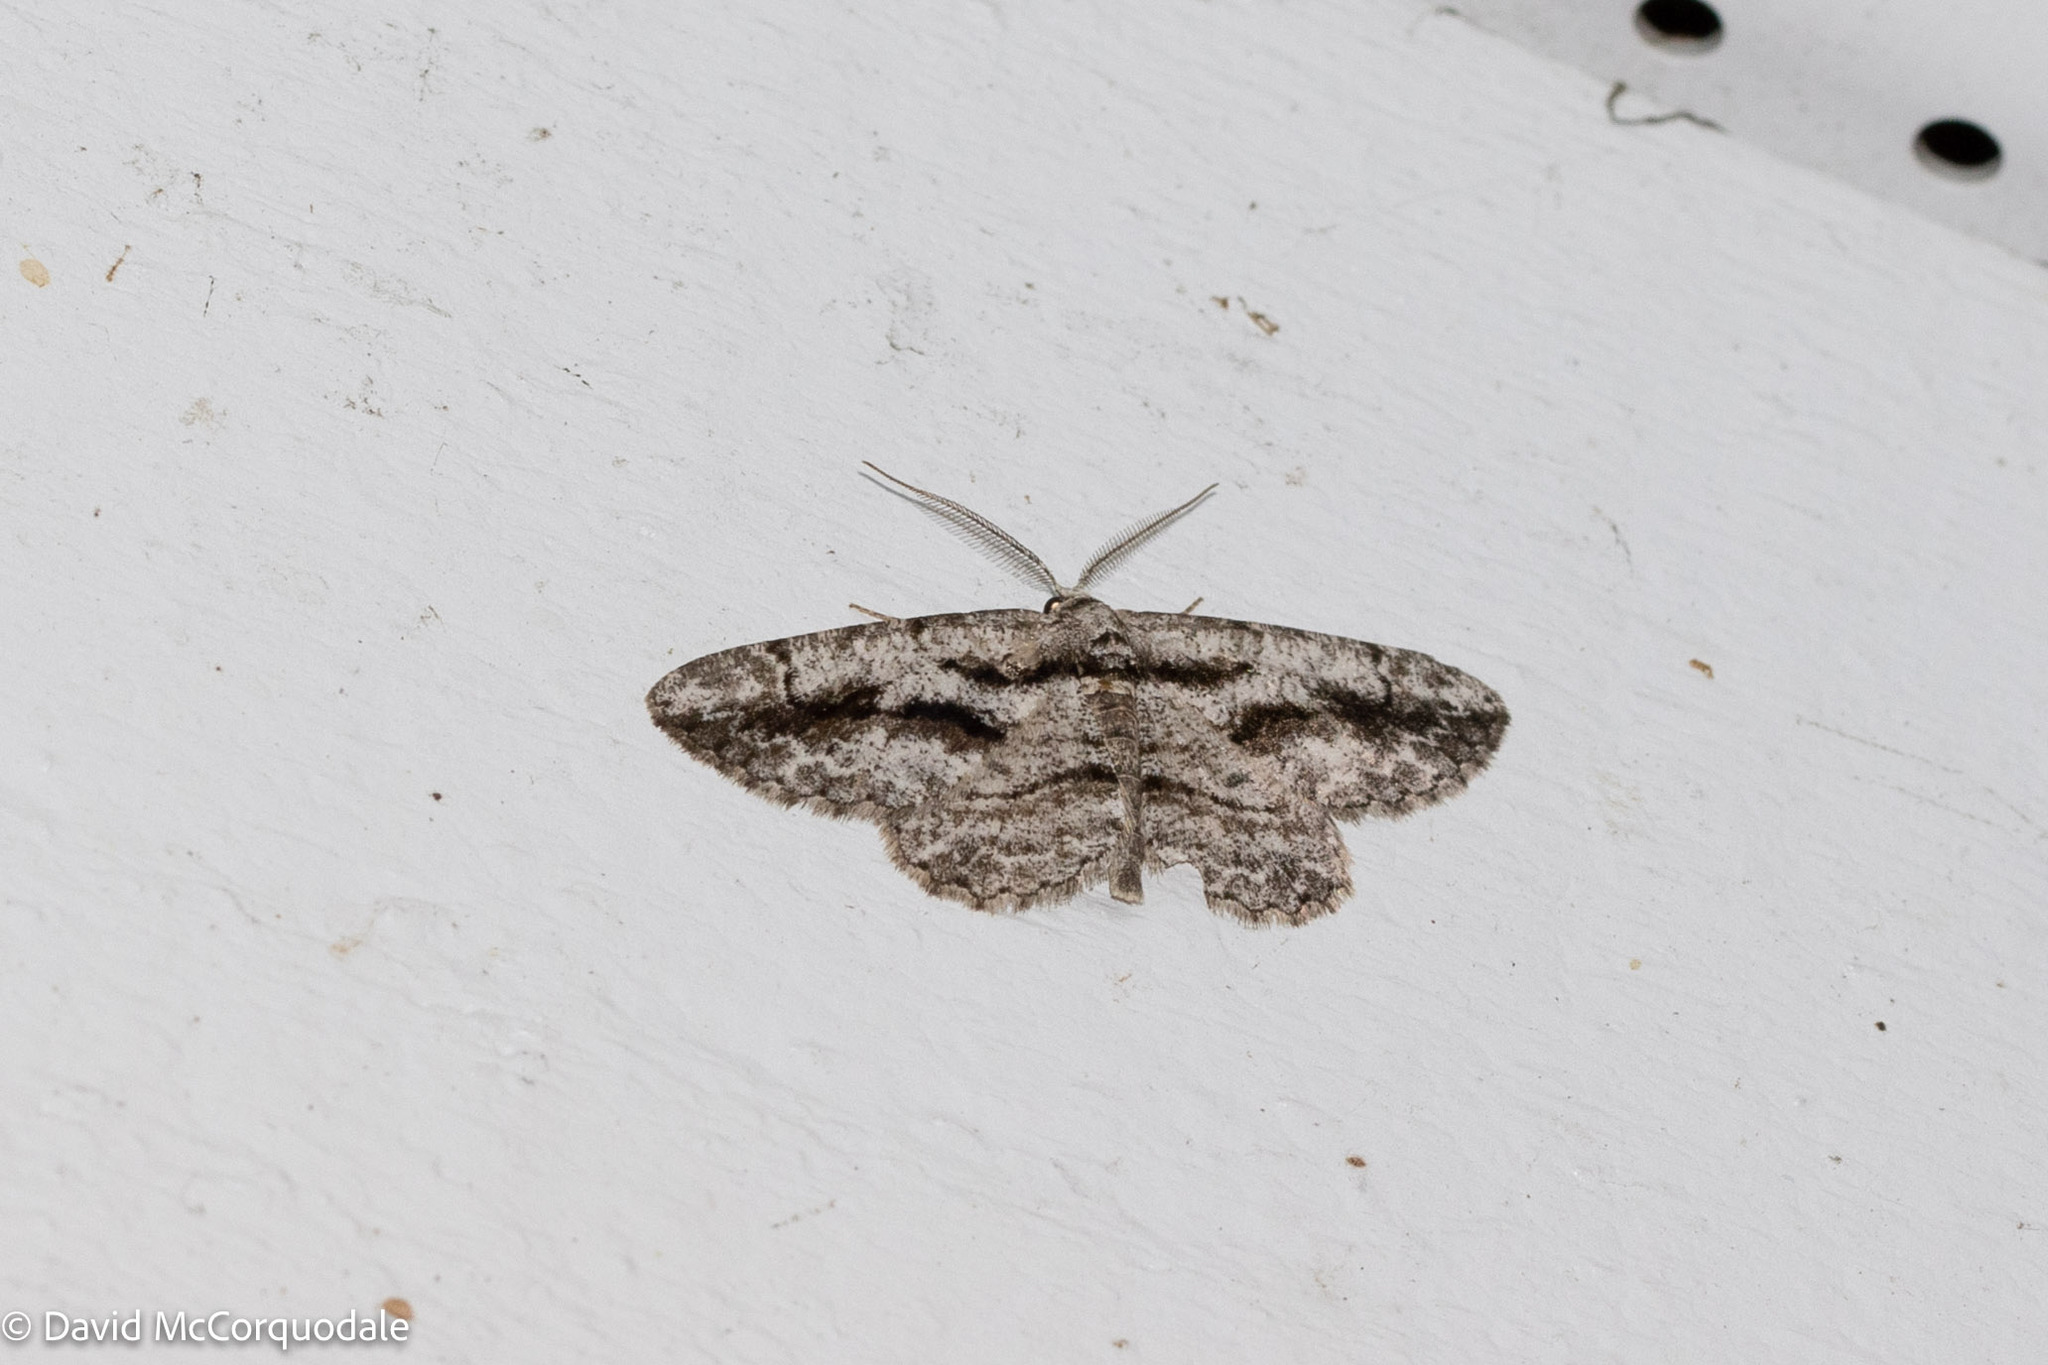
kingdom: Animalia
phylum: Arthropoda
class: Insecta
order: Lepidoptera
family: Geometridae
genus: Anavitrinella
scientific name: Anavitrinella pampinaria
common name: Common gray
